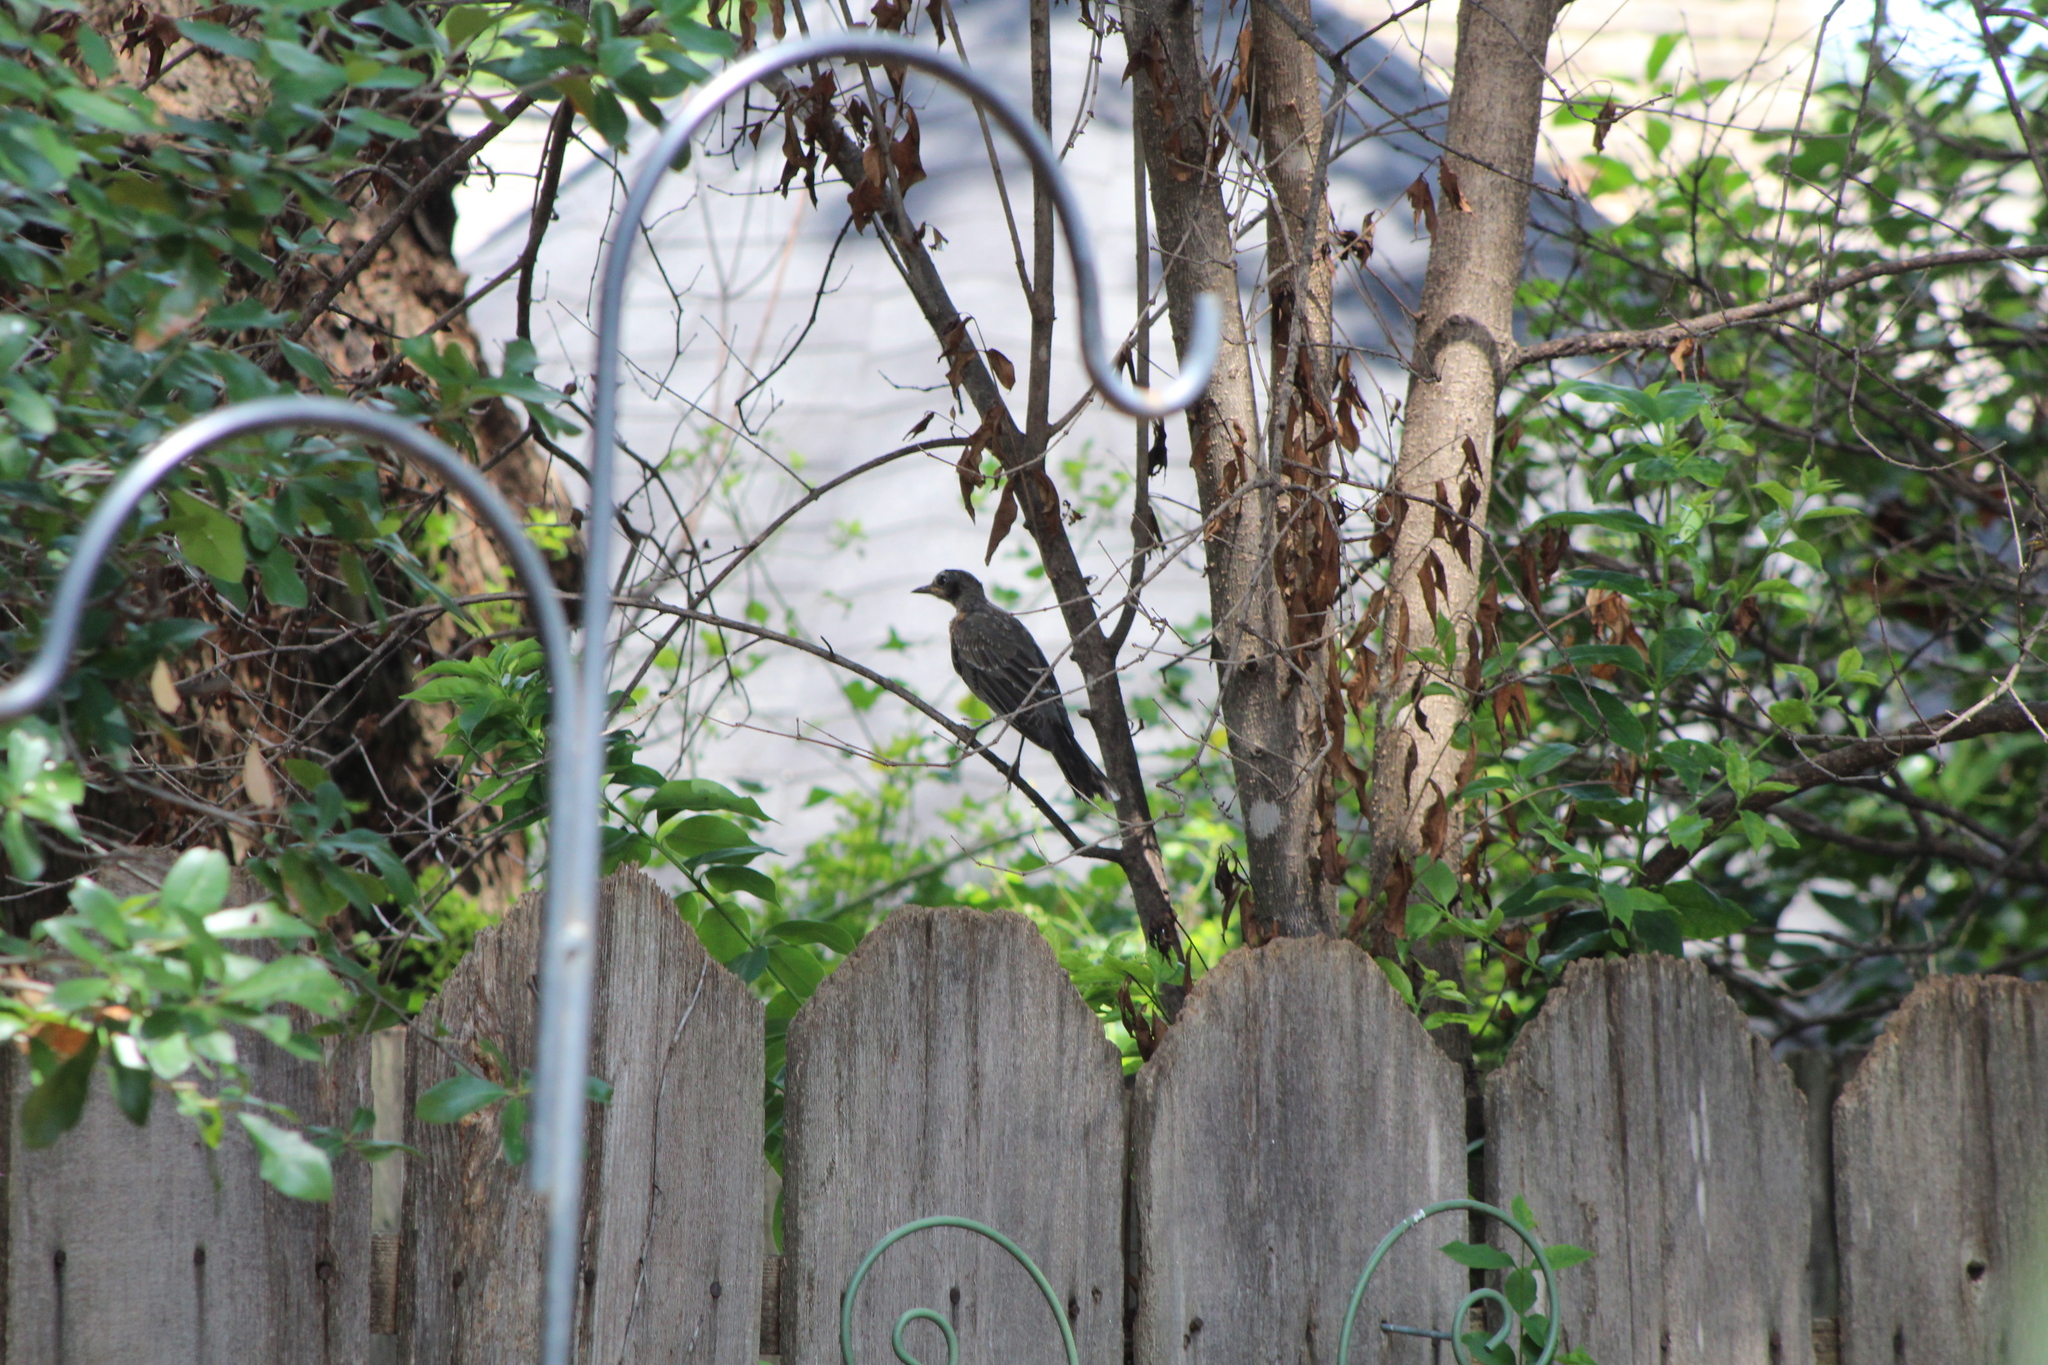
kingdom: Animalia
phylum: Chordata
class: Aves
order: Passeriformes
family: Turdidae
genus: Turdus
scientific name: Turdus migratorius
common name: American robin
